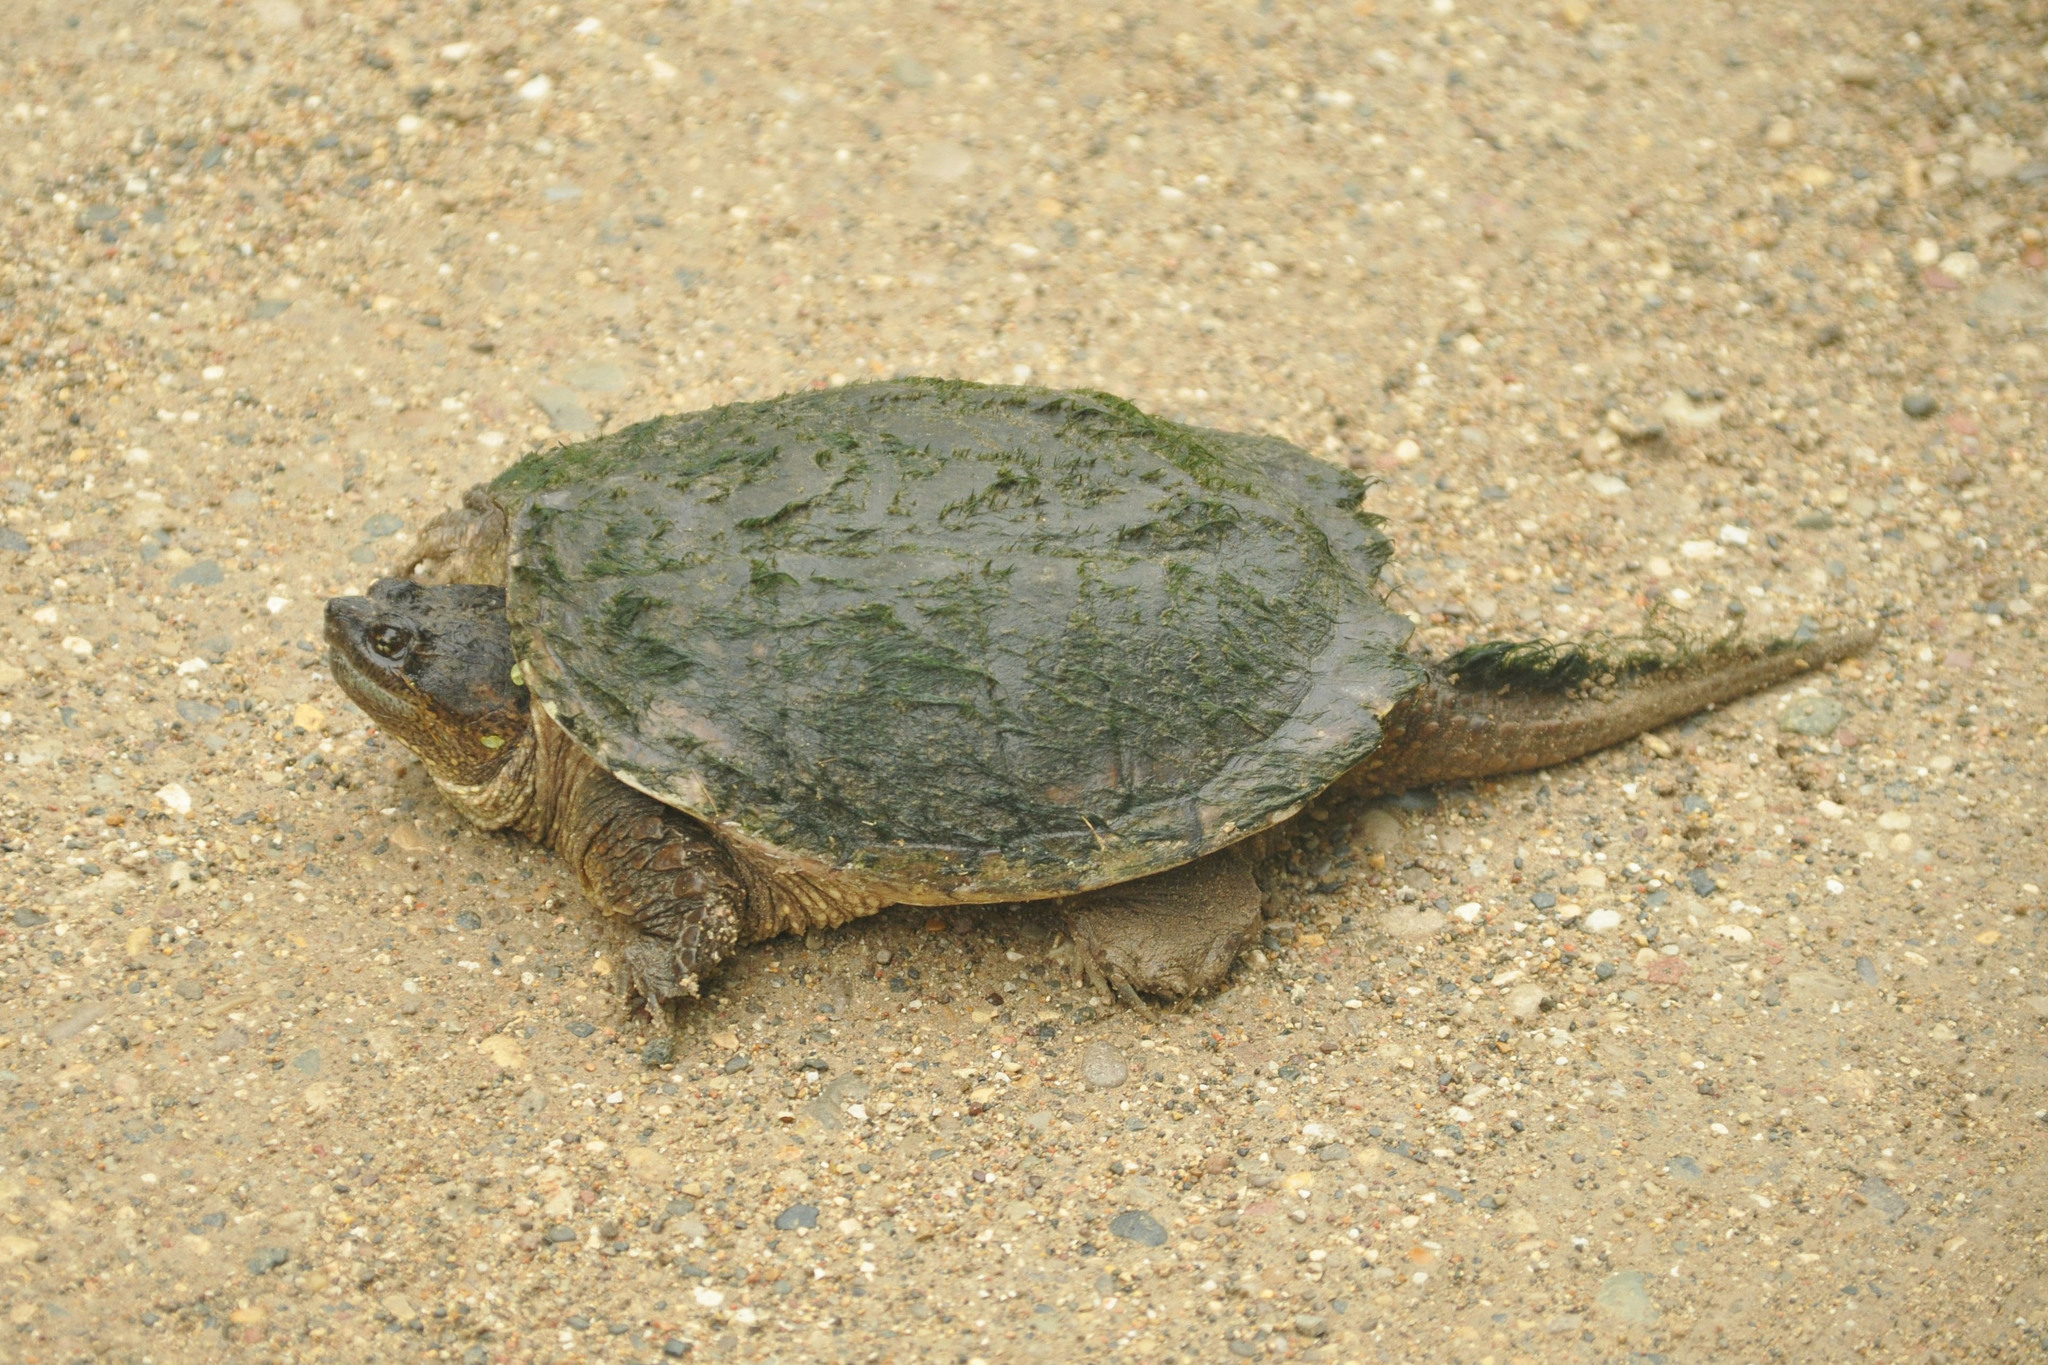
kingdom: Animalia
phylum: Chordata
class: Testudines
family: Chelydridae
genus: Chelydra
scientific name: Chelydra serpentina
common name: Common snapping turtle
